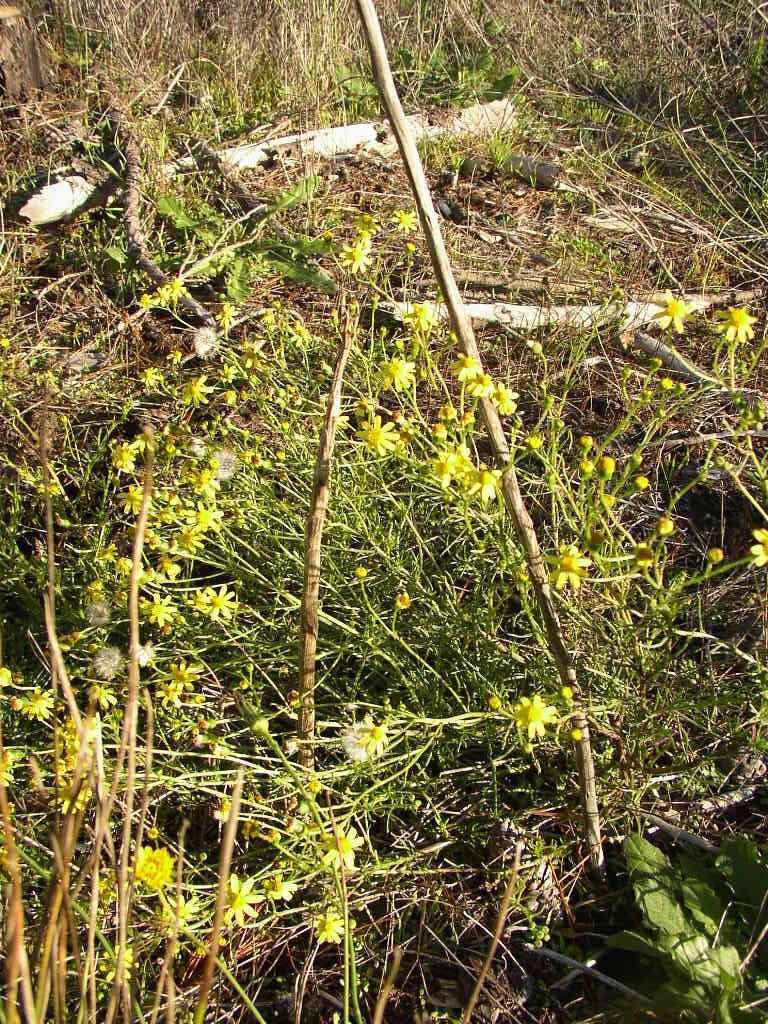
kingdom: Plantae
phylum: Tracheophyta
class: Magnoliopsida
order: Asterales
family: Asteraceae
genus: Senecio
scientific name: Senecio burchellii
